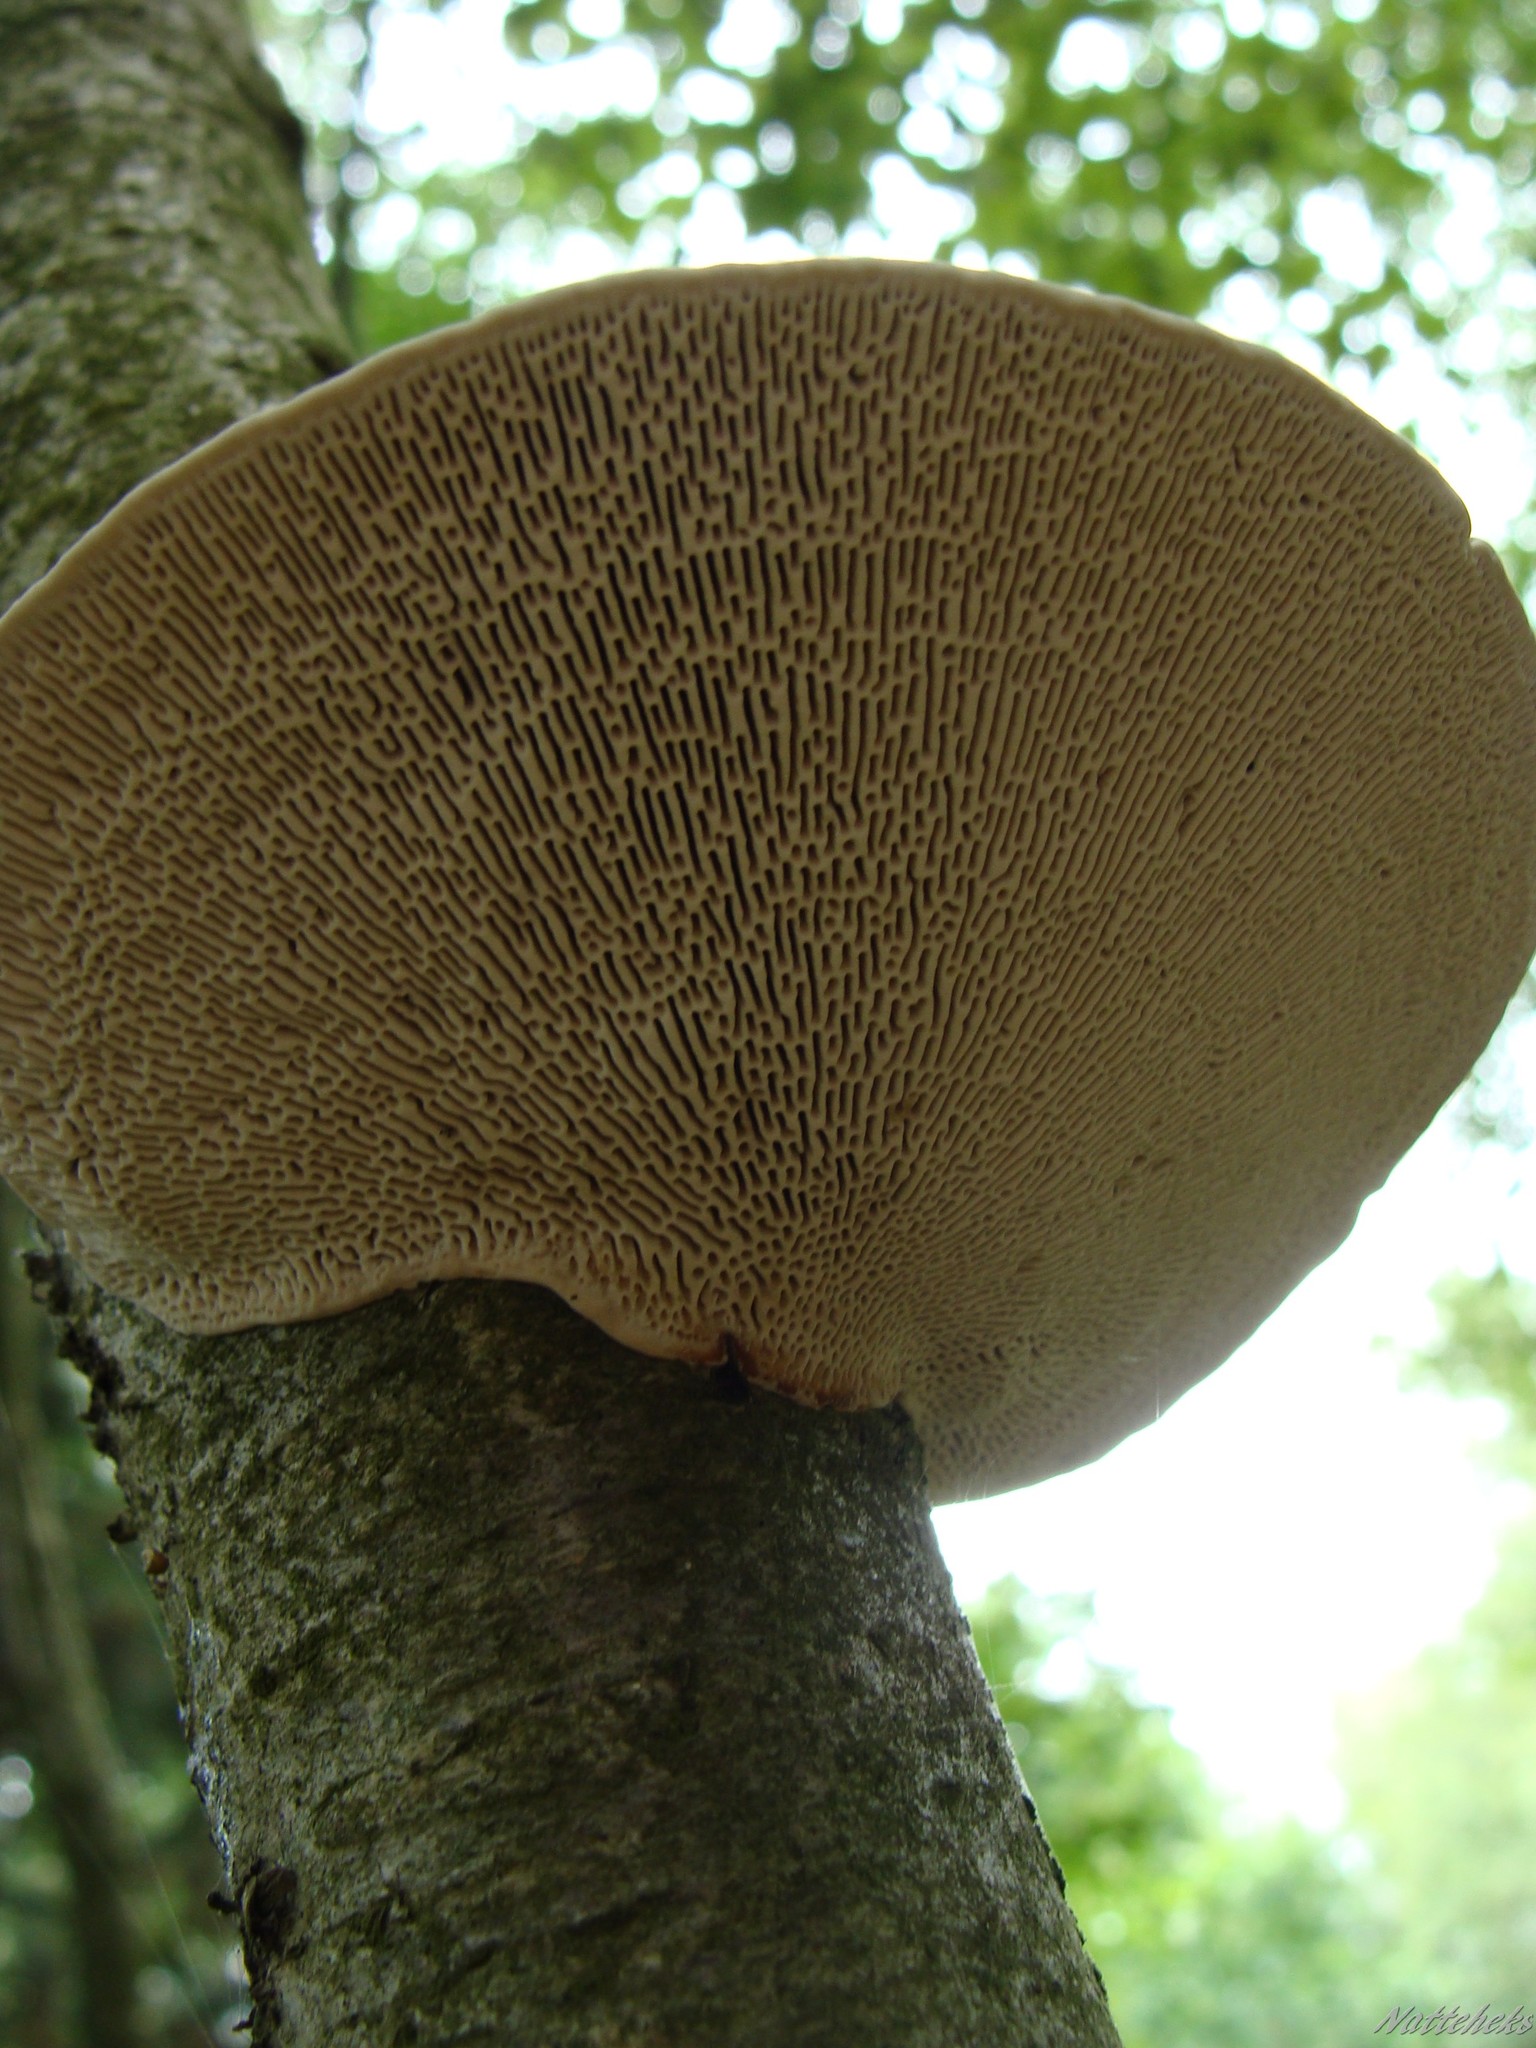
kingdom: Fungi
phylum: Basidiomycota
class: Agaricomycetes
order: Polyporales
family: Polyporaceae
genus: Daedaleopsis
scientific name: Daedaleopsis confragosa
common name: Blushing bracket
